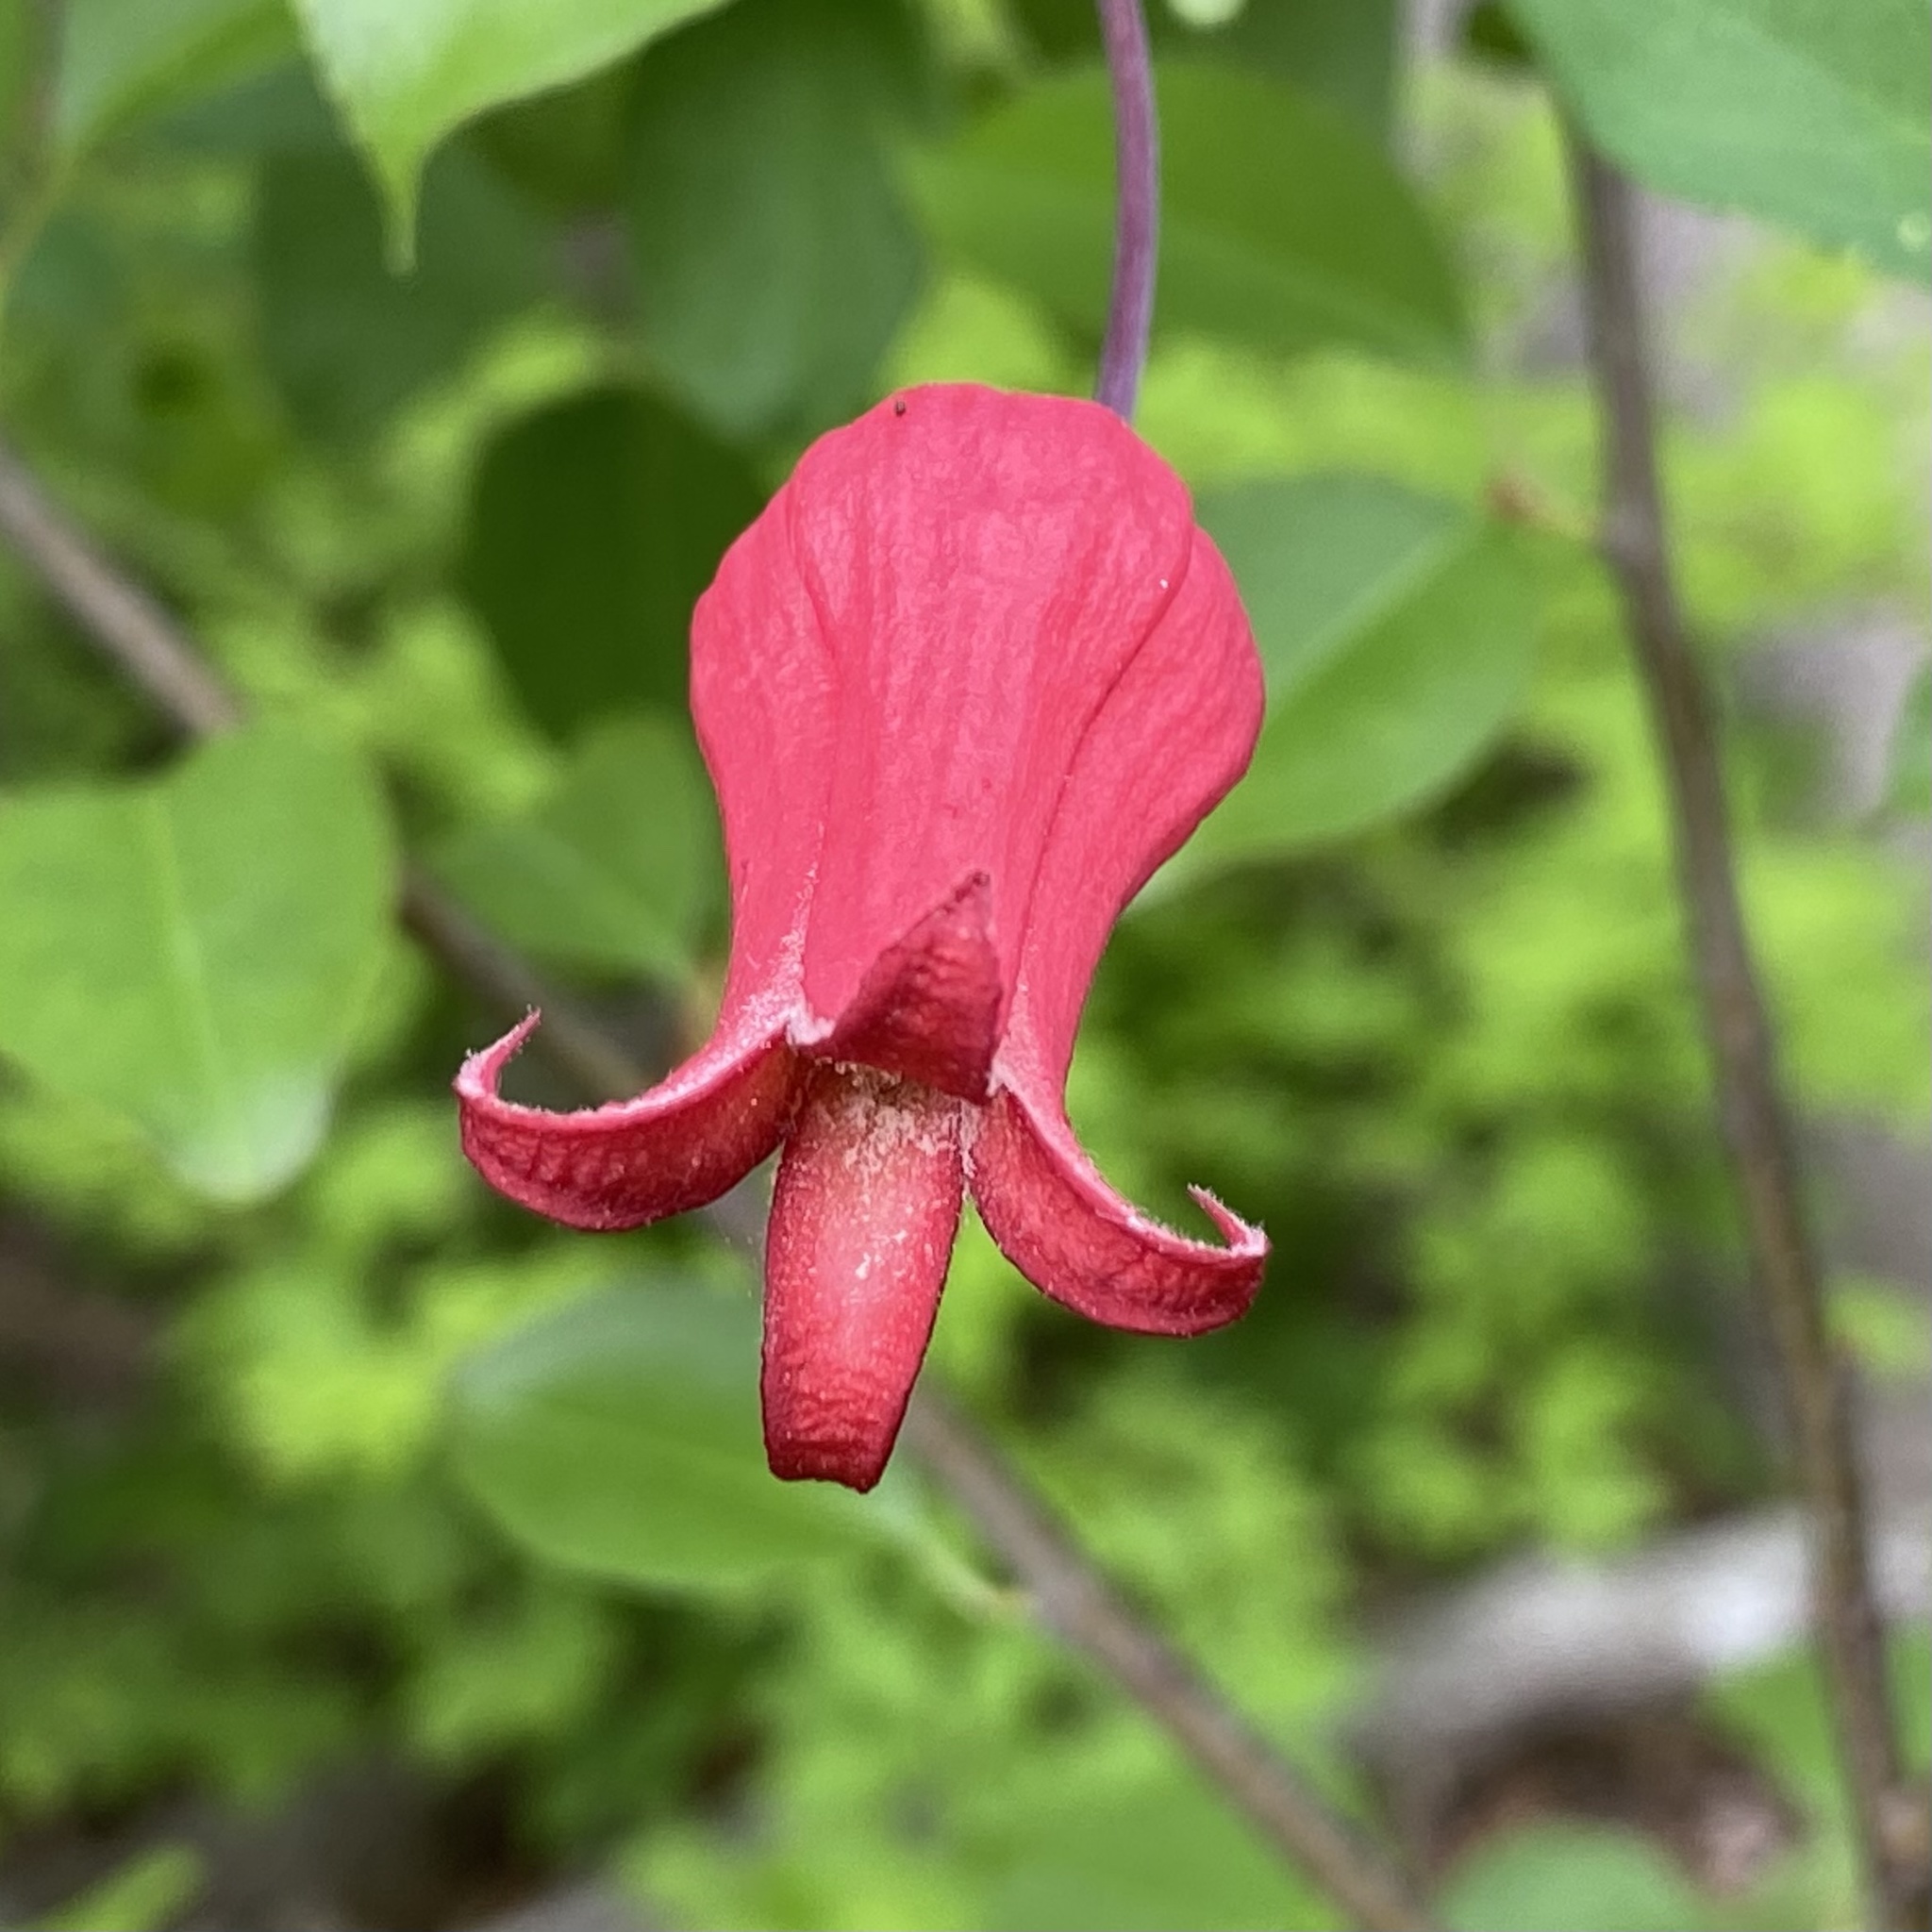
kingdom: Plantae
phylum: Tracheophyta
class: Magnoliopsida
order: Ranunculales
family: Ranunculaceae
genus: Clematis
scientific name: Clematis texensis
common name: Crimson clematis
